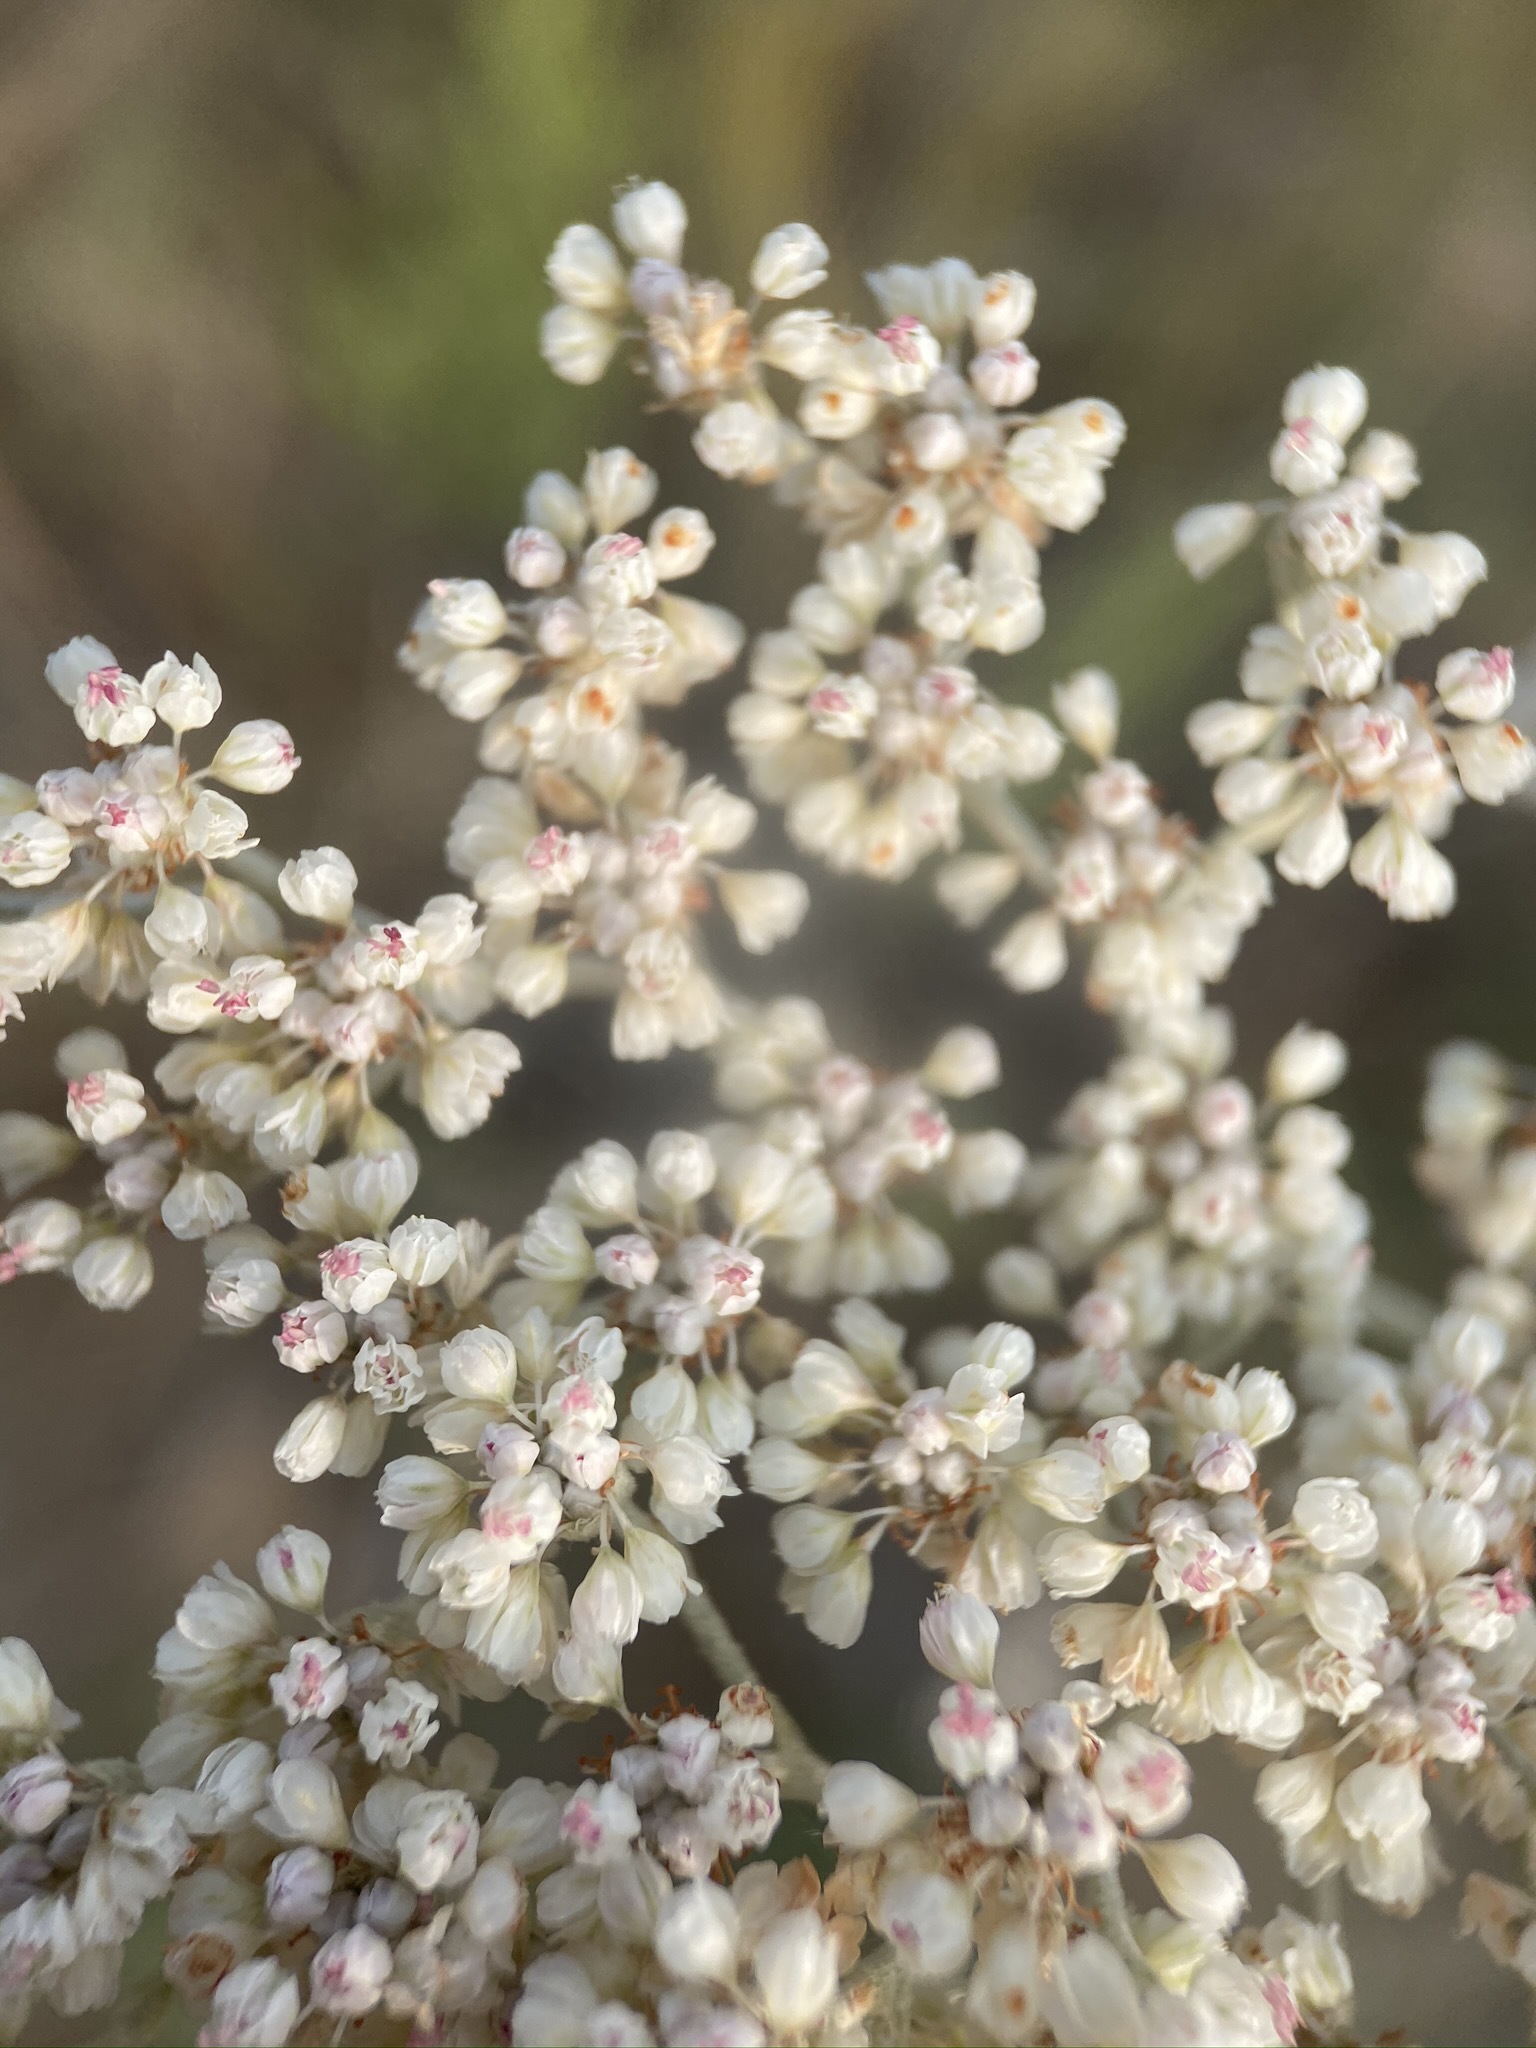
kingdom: Plantae
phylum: Tracheophyta
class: Magnoliopsida
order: Caryophyllales
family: Polygonaceae
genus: Eriogonum
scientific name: Eriogonum annuum
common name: Annual wild buckwheat
